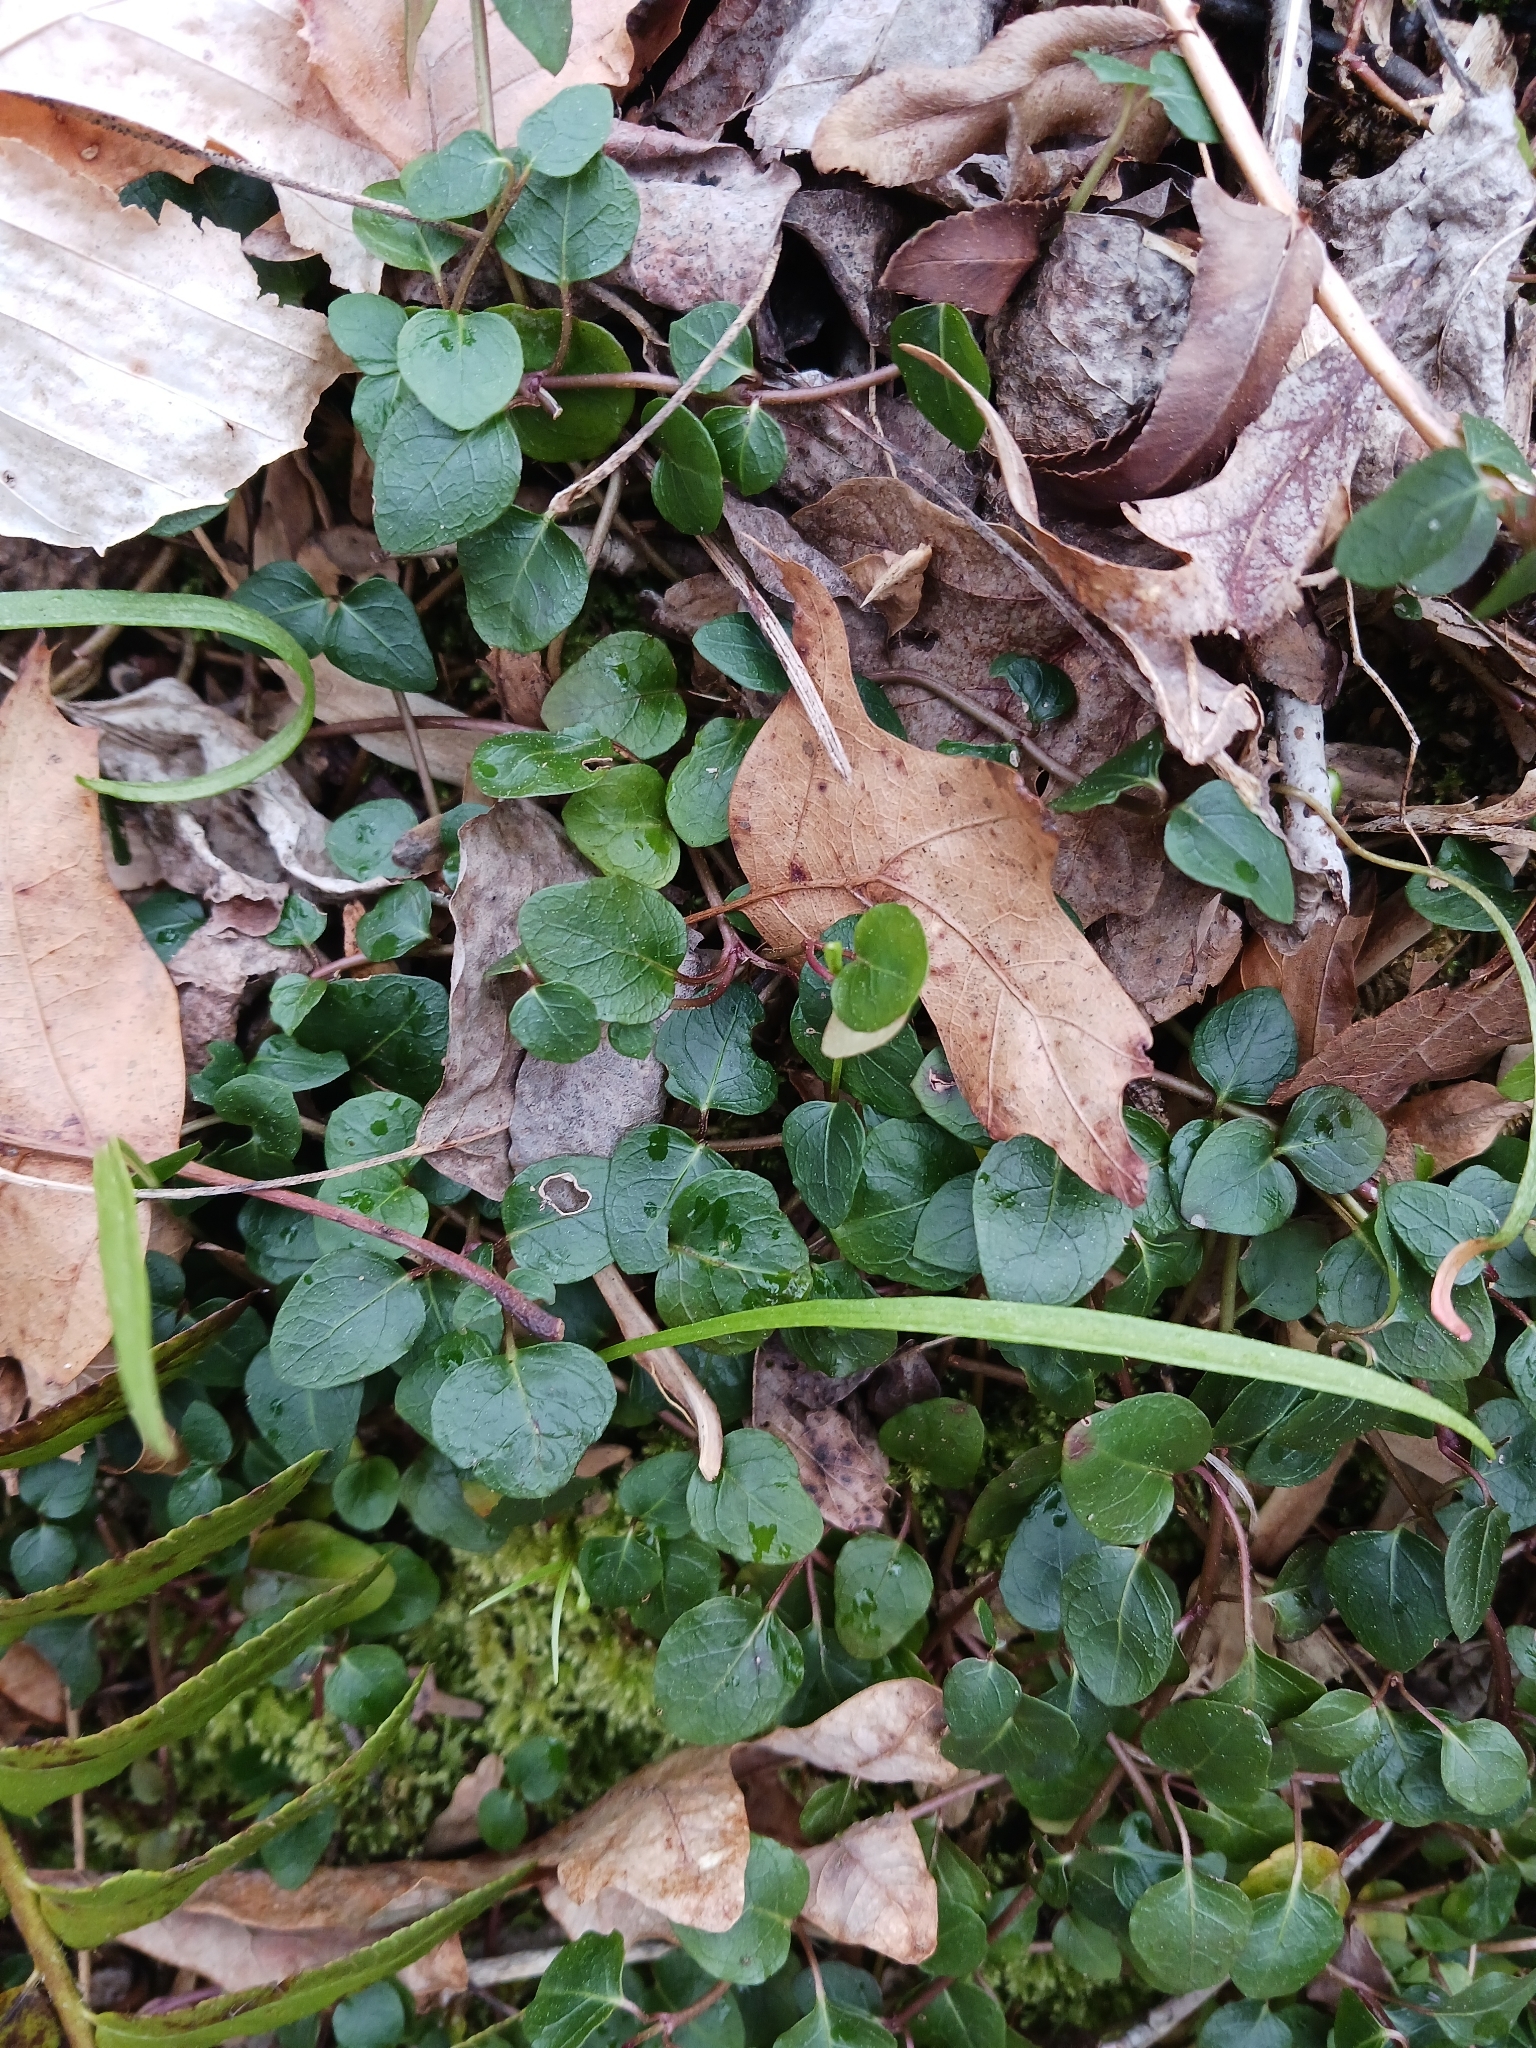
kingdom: Plantae
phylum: Tracheophyta
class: Magnoliopsida
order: Gentianales
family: Rubiaceae
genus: Mitchella
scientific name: Mitchella repens
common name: Partridge-berry
